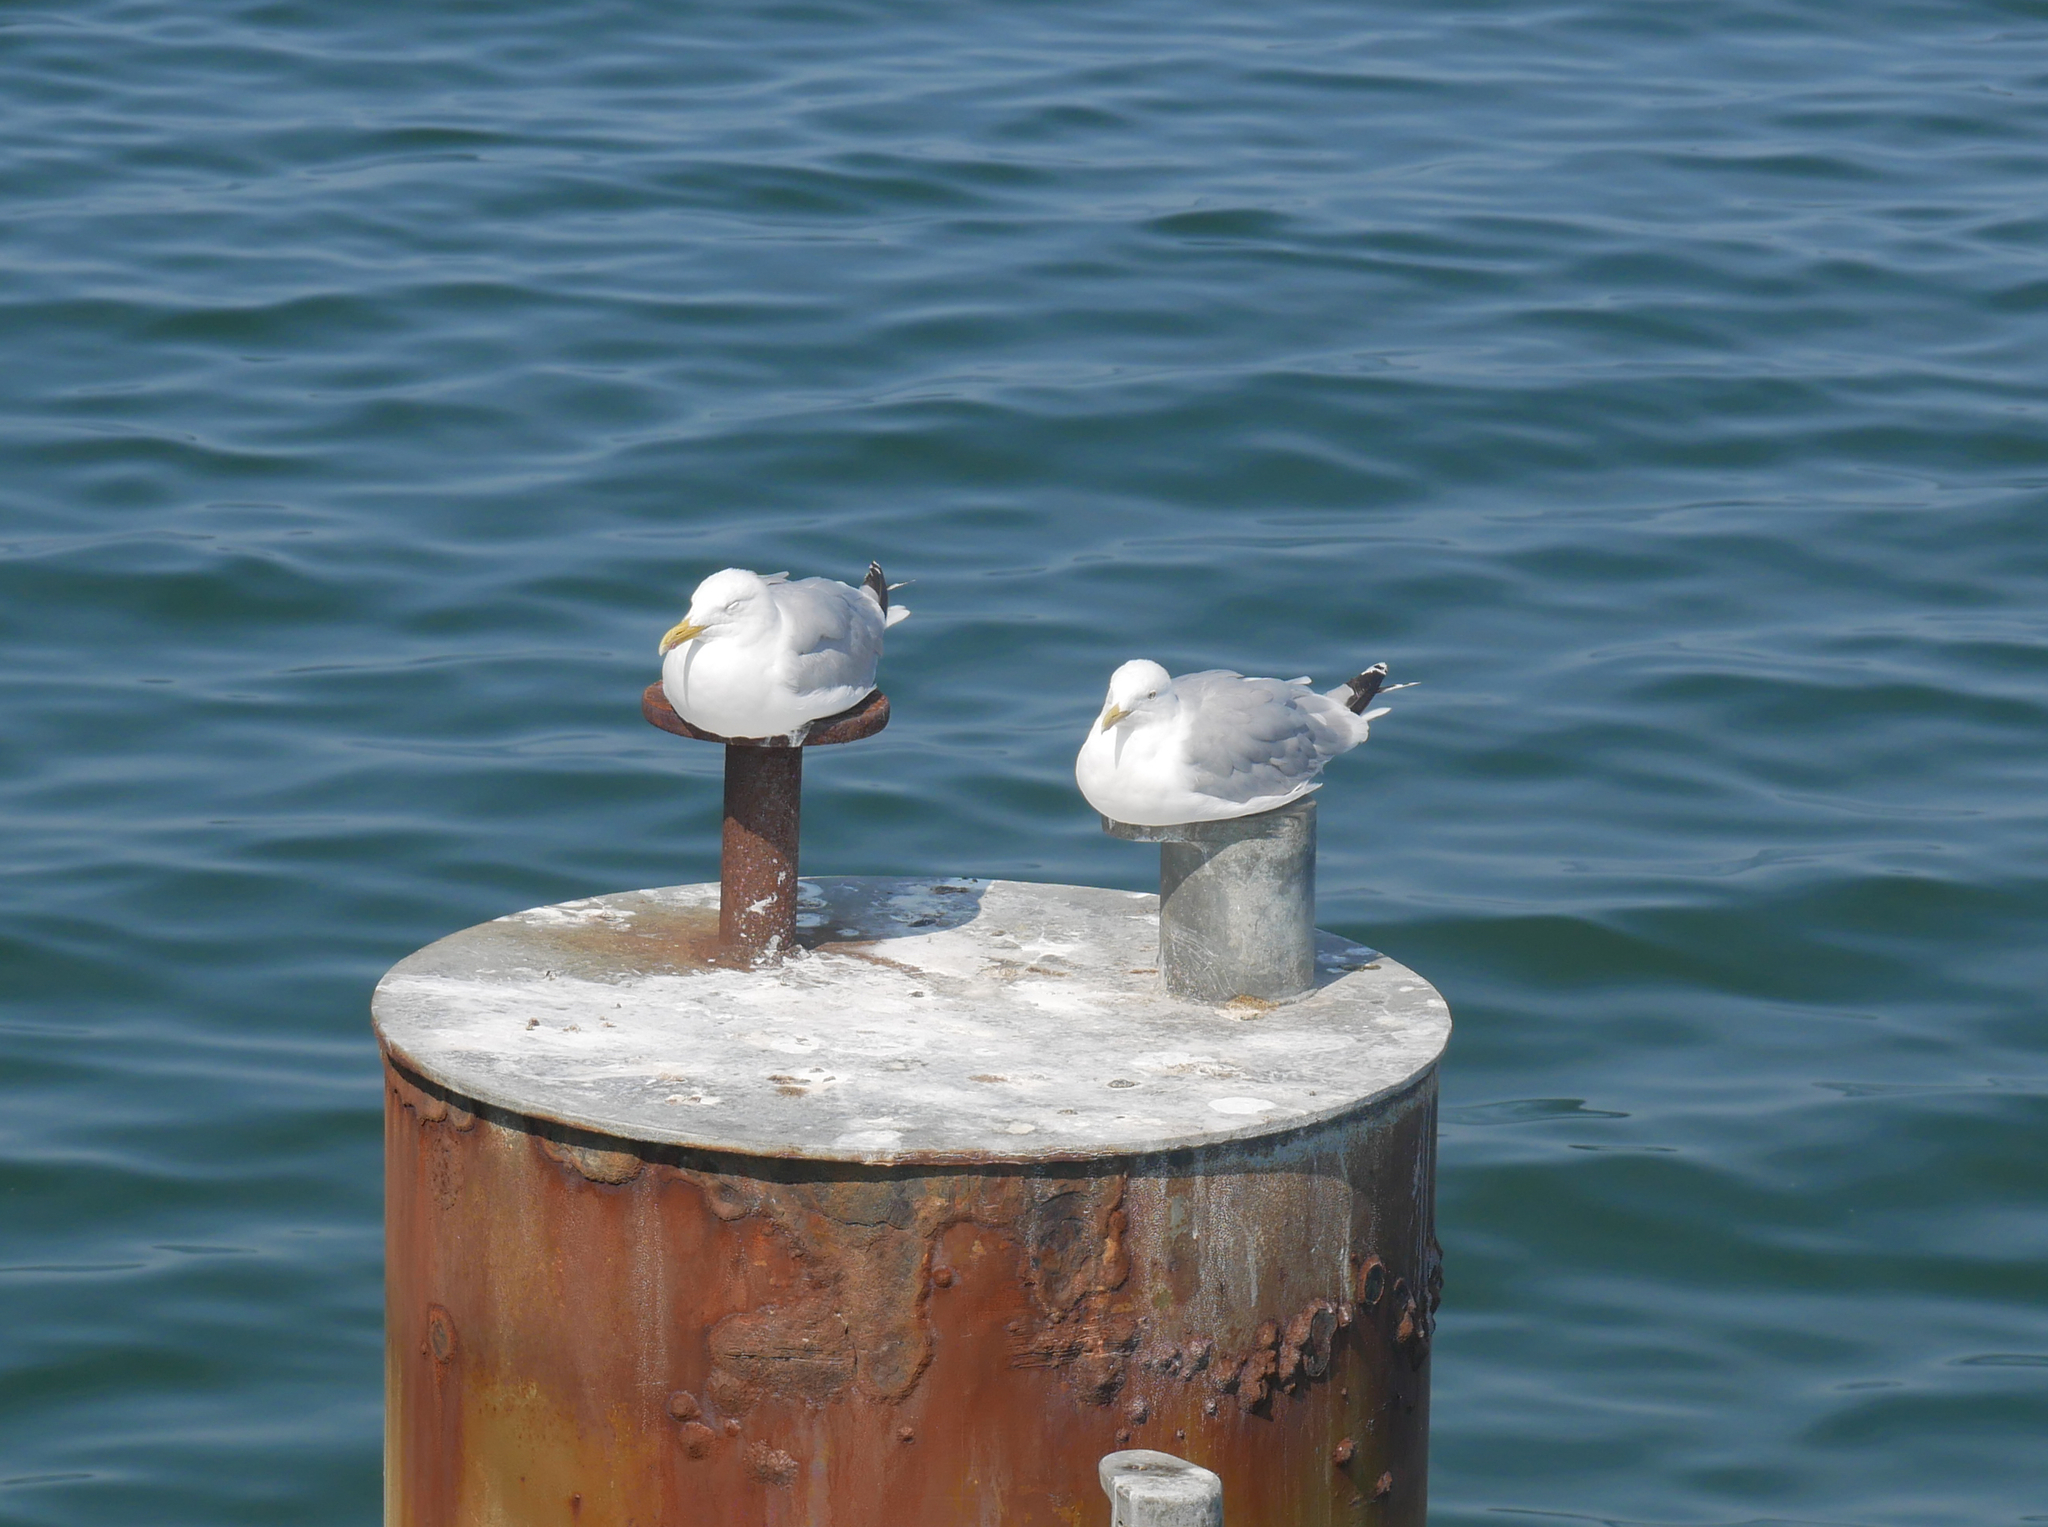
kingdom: Animalia
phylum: Chordata
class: Aves
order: Charadriiformes
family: Laridae
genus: Larus
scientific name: Larus argentatus
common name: Herring gull
